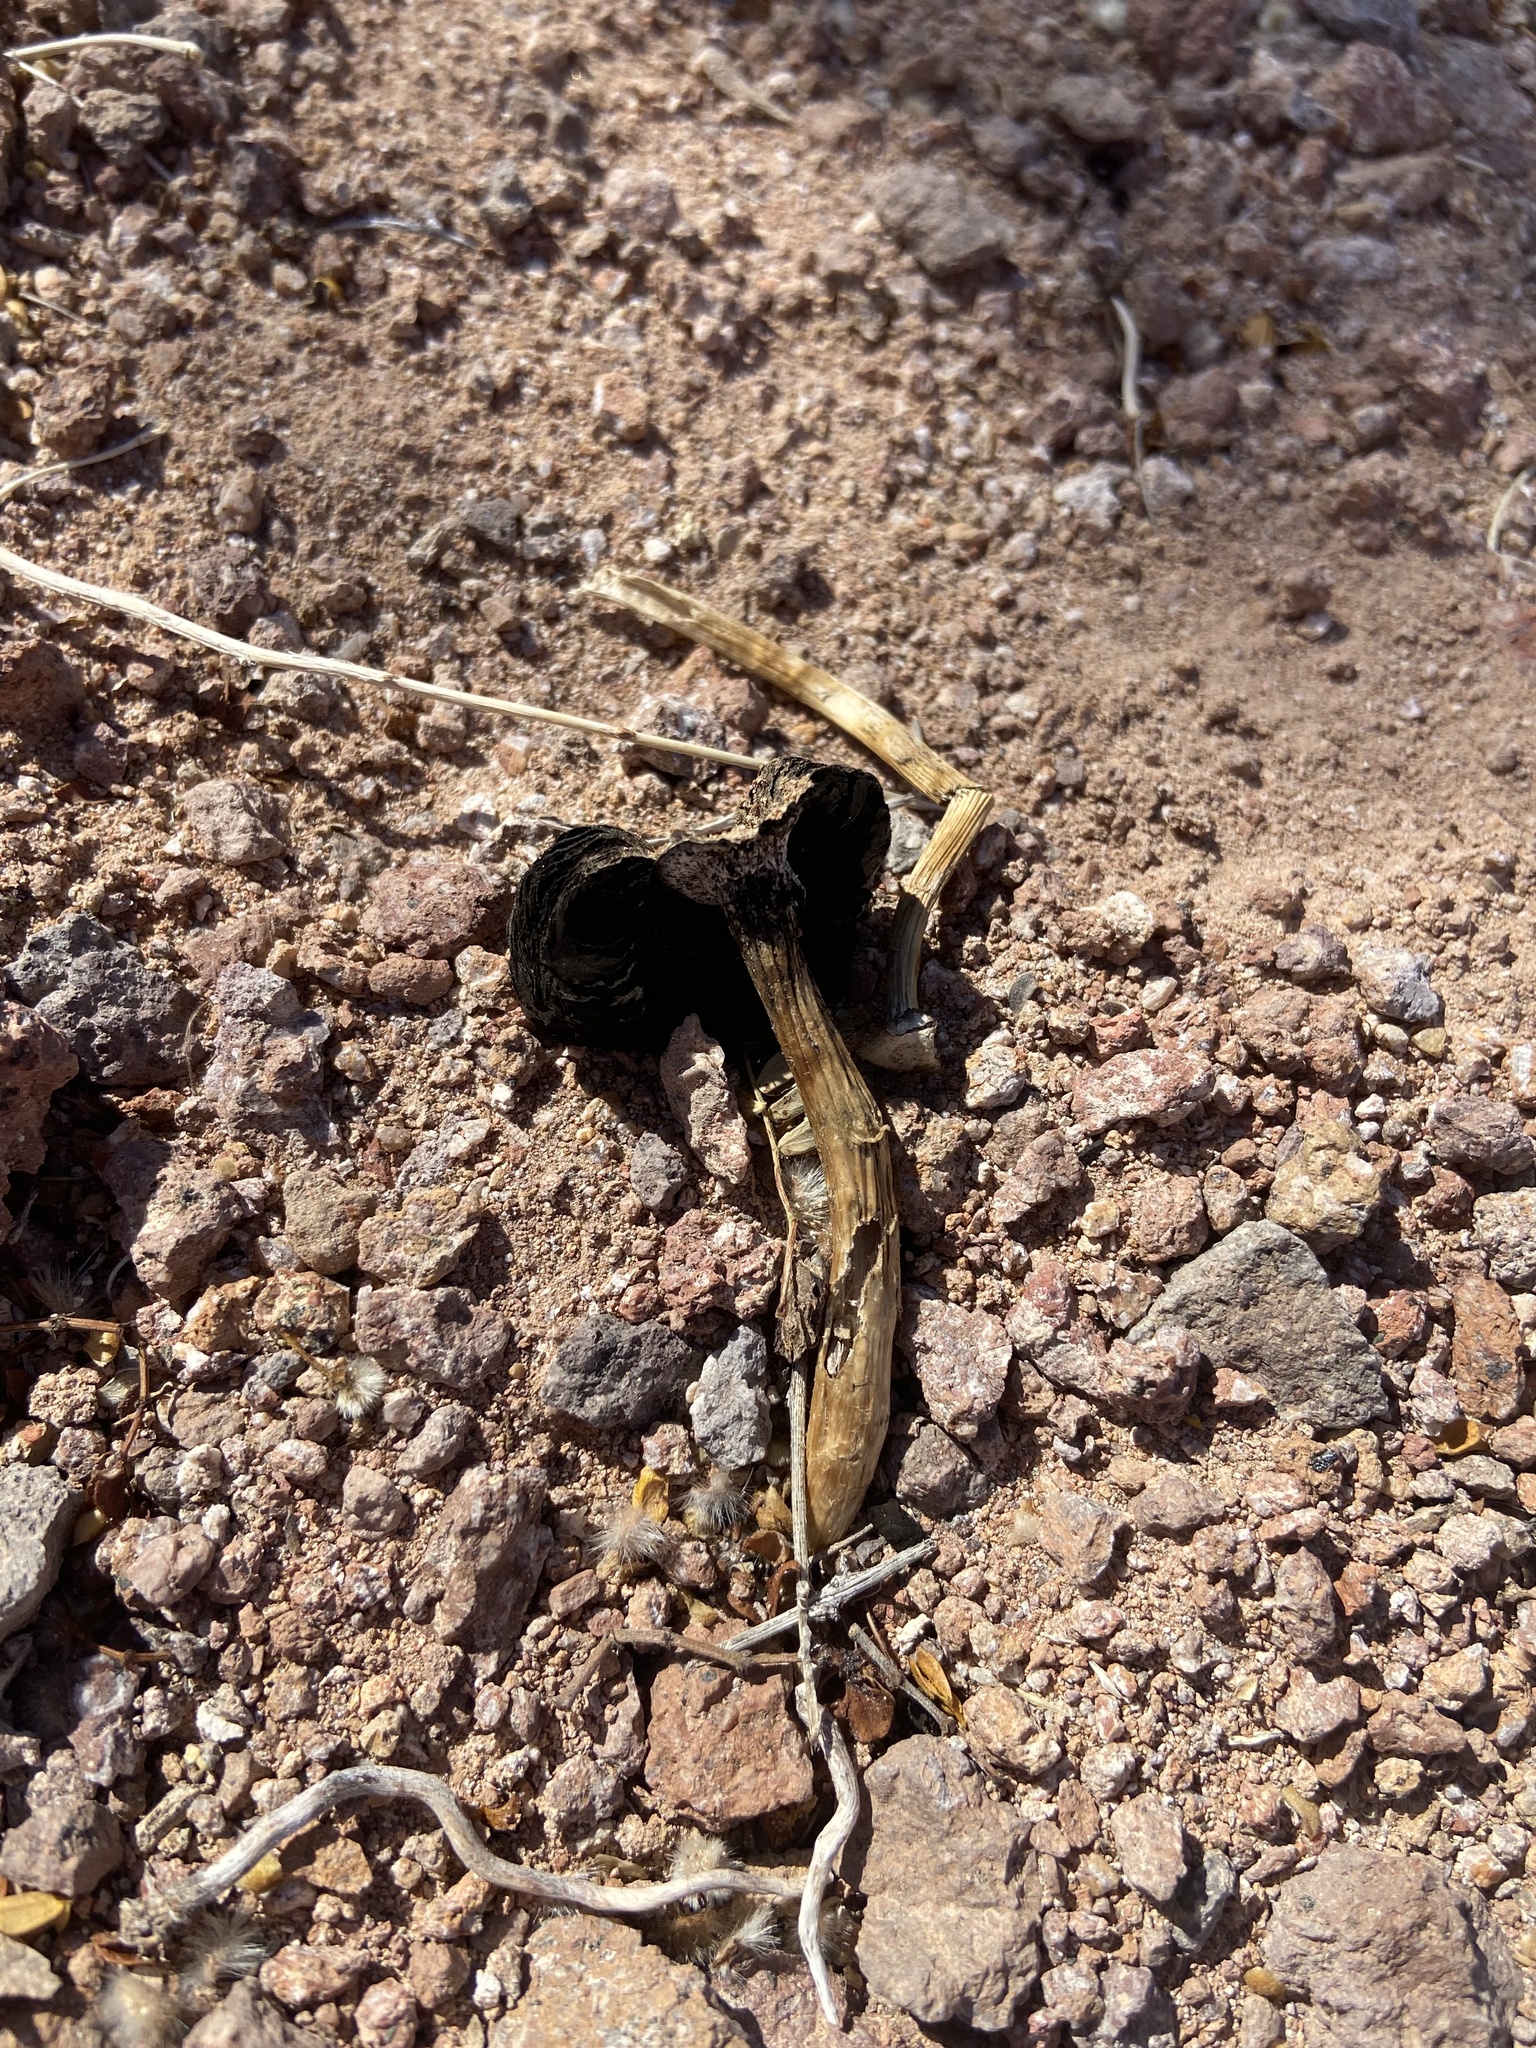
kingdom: Fungi
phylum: Basidiomycota
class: Agaricomycetes
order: Agaricales
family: Agaricaceae
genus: Montagnea
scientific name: Montagnea arenaria
